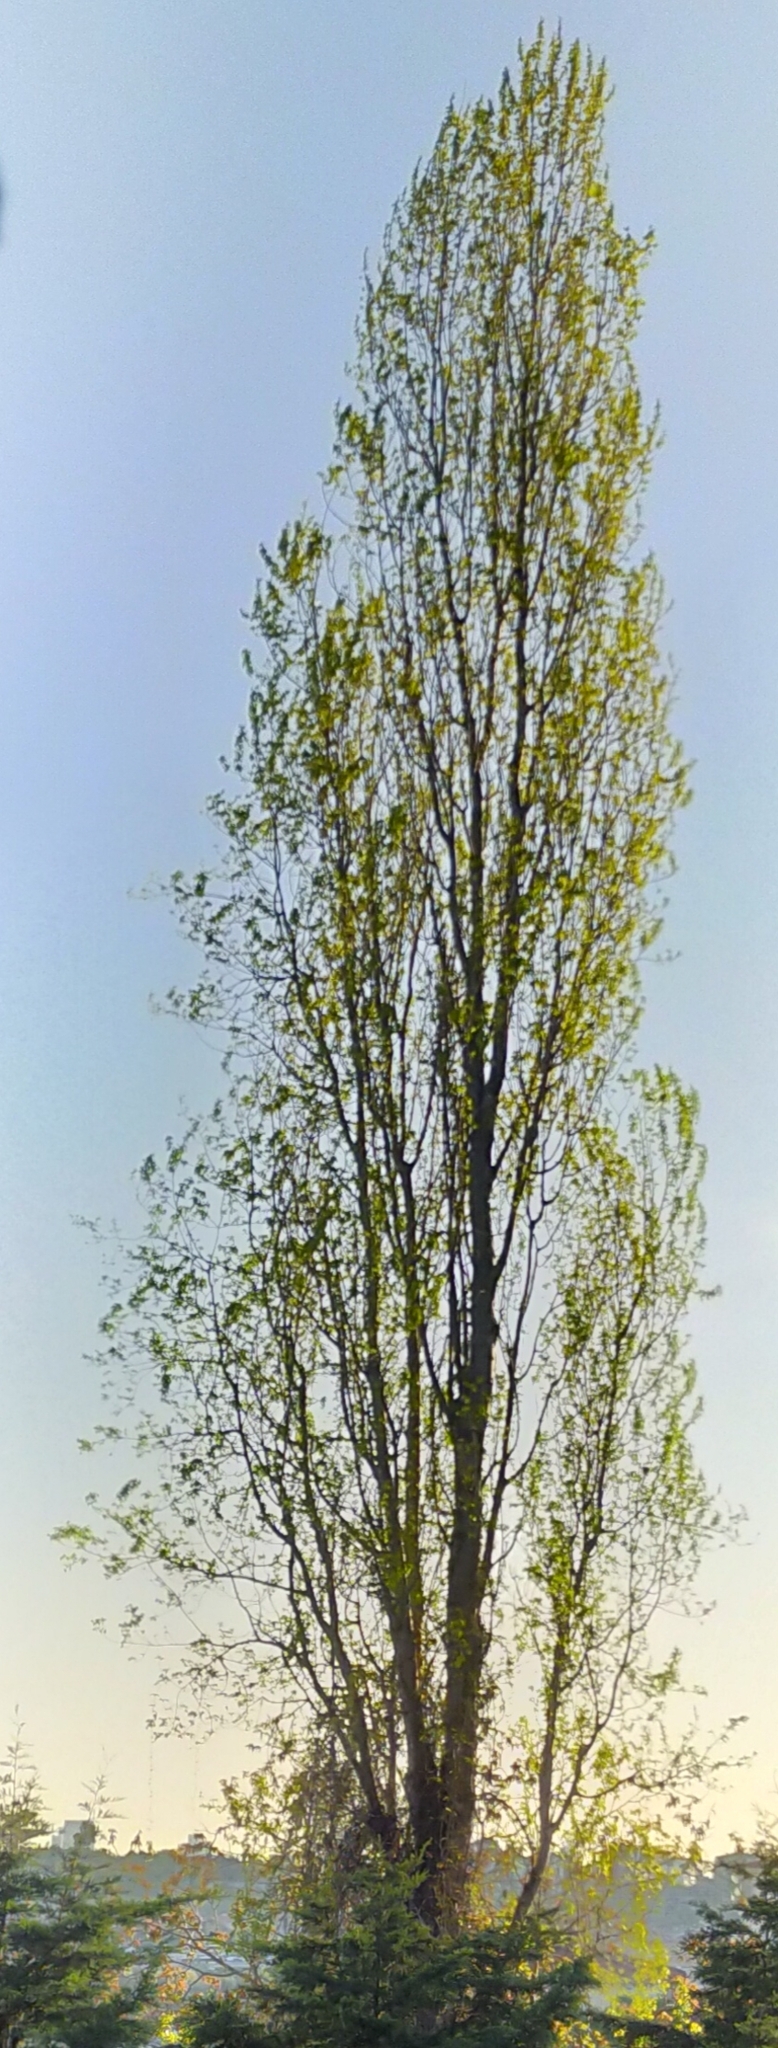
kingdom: Plantae
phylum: Tracheophyta
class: Magnoliopsida
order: Malpighiales
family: Salicaceae
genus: Populus
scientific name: Populus nigra
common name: Black poplar
